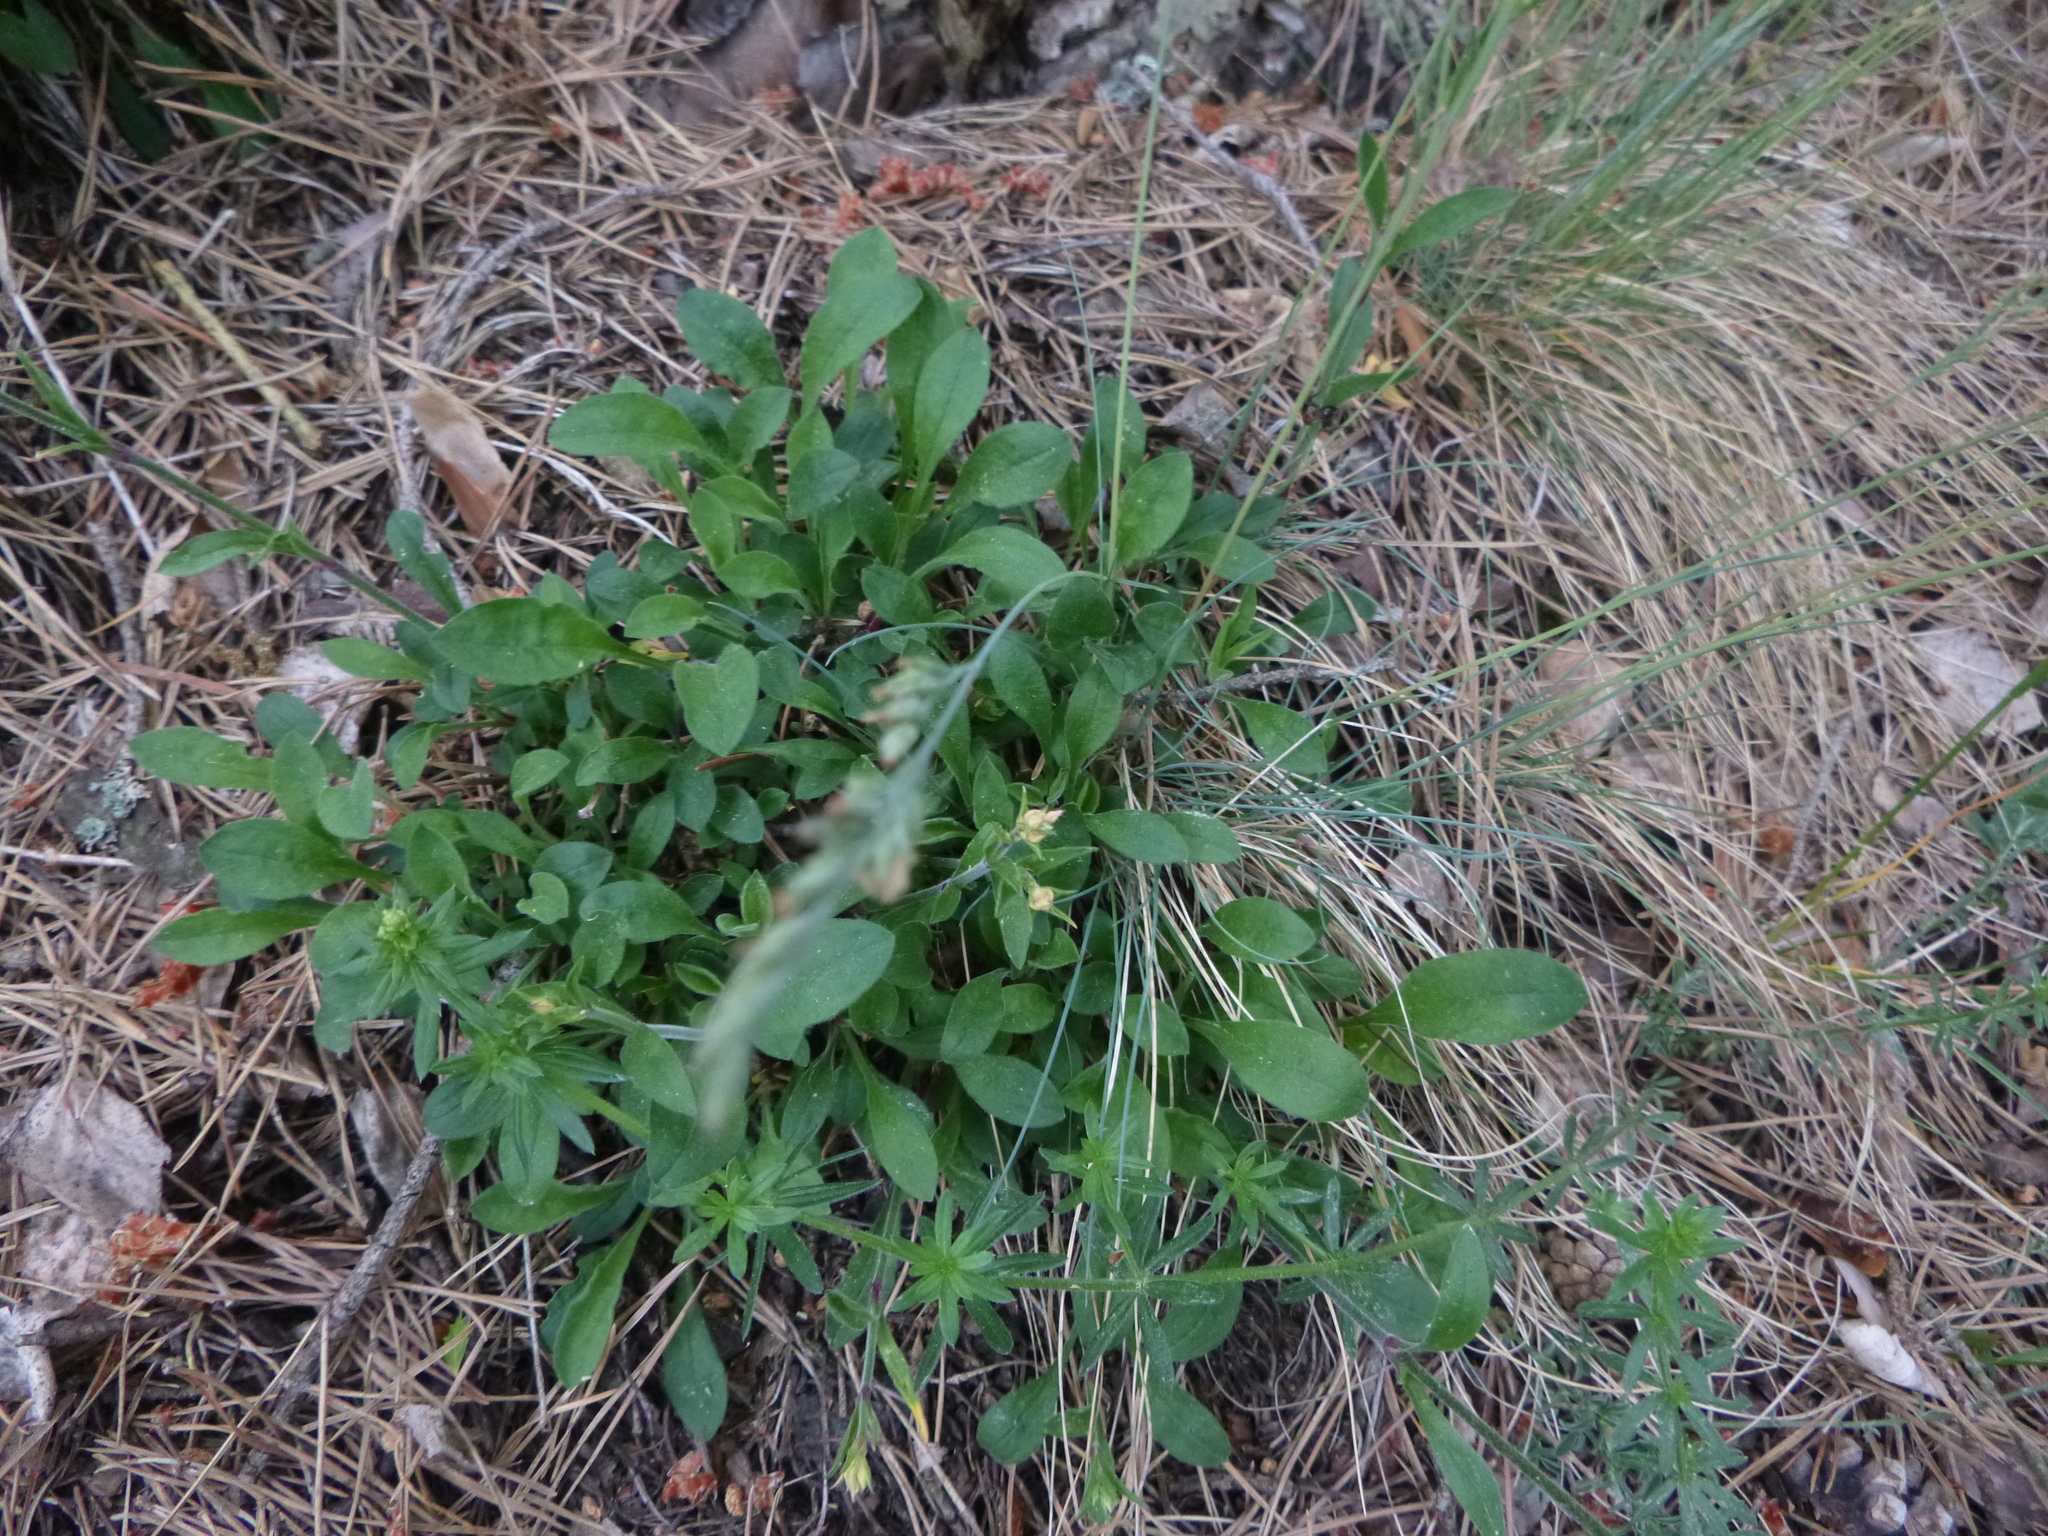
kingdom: Plantae
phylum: Tracheophyta
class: Magnoliopsida
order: Caryophyllales
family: Caryophyllaceae
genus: Silene
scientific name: Silene nutans
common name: Nottingham catchfly
